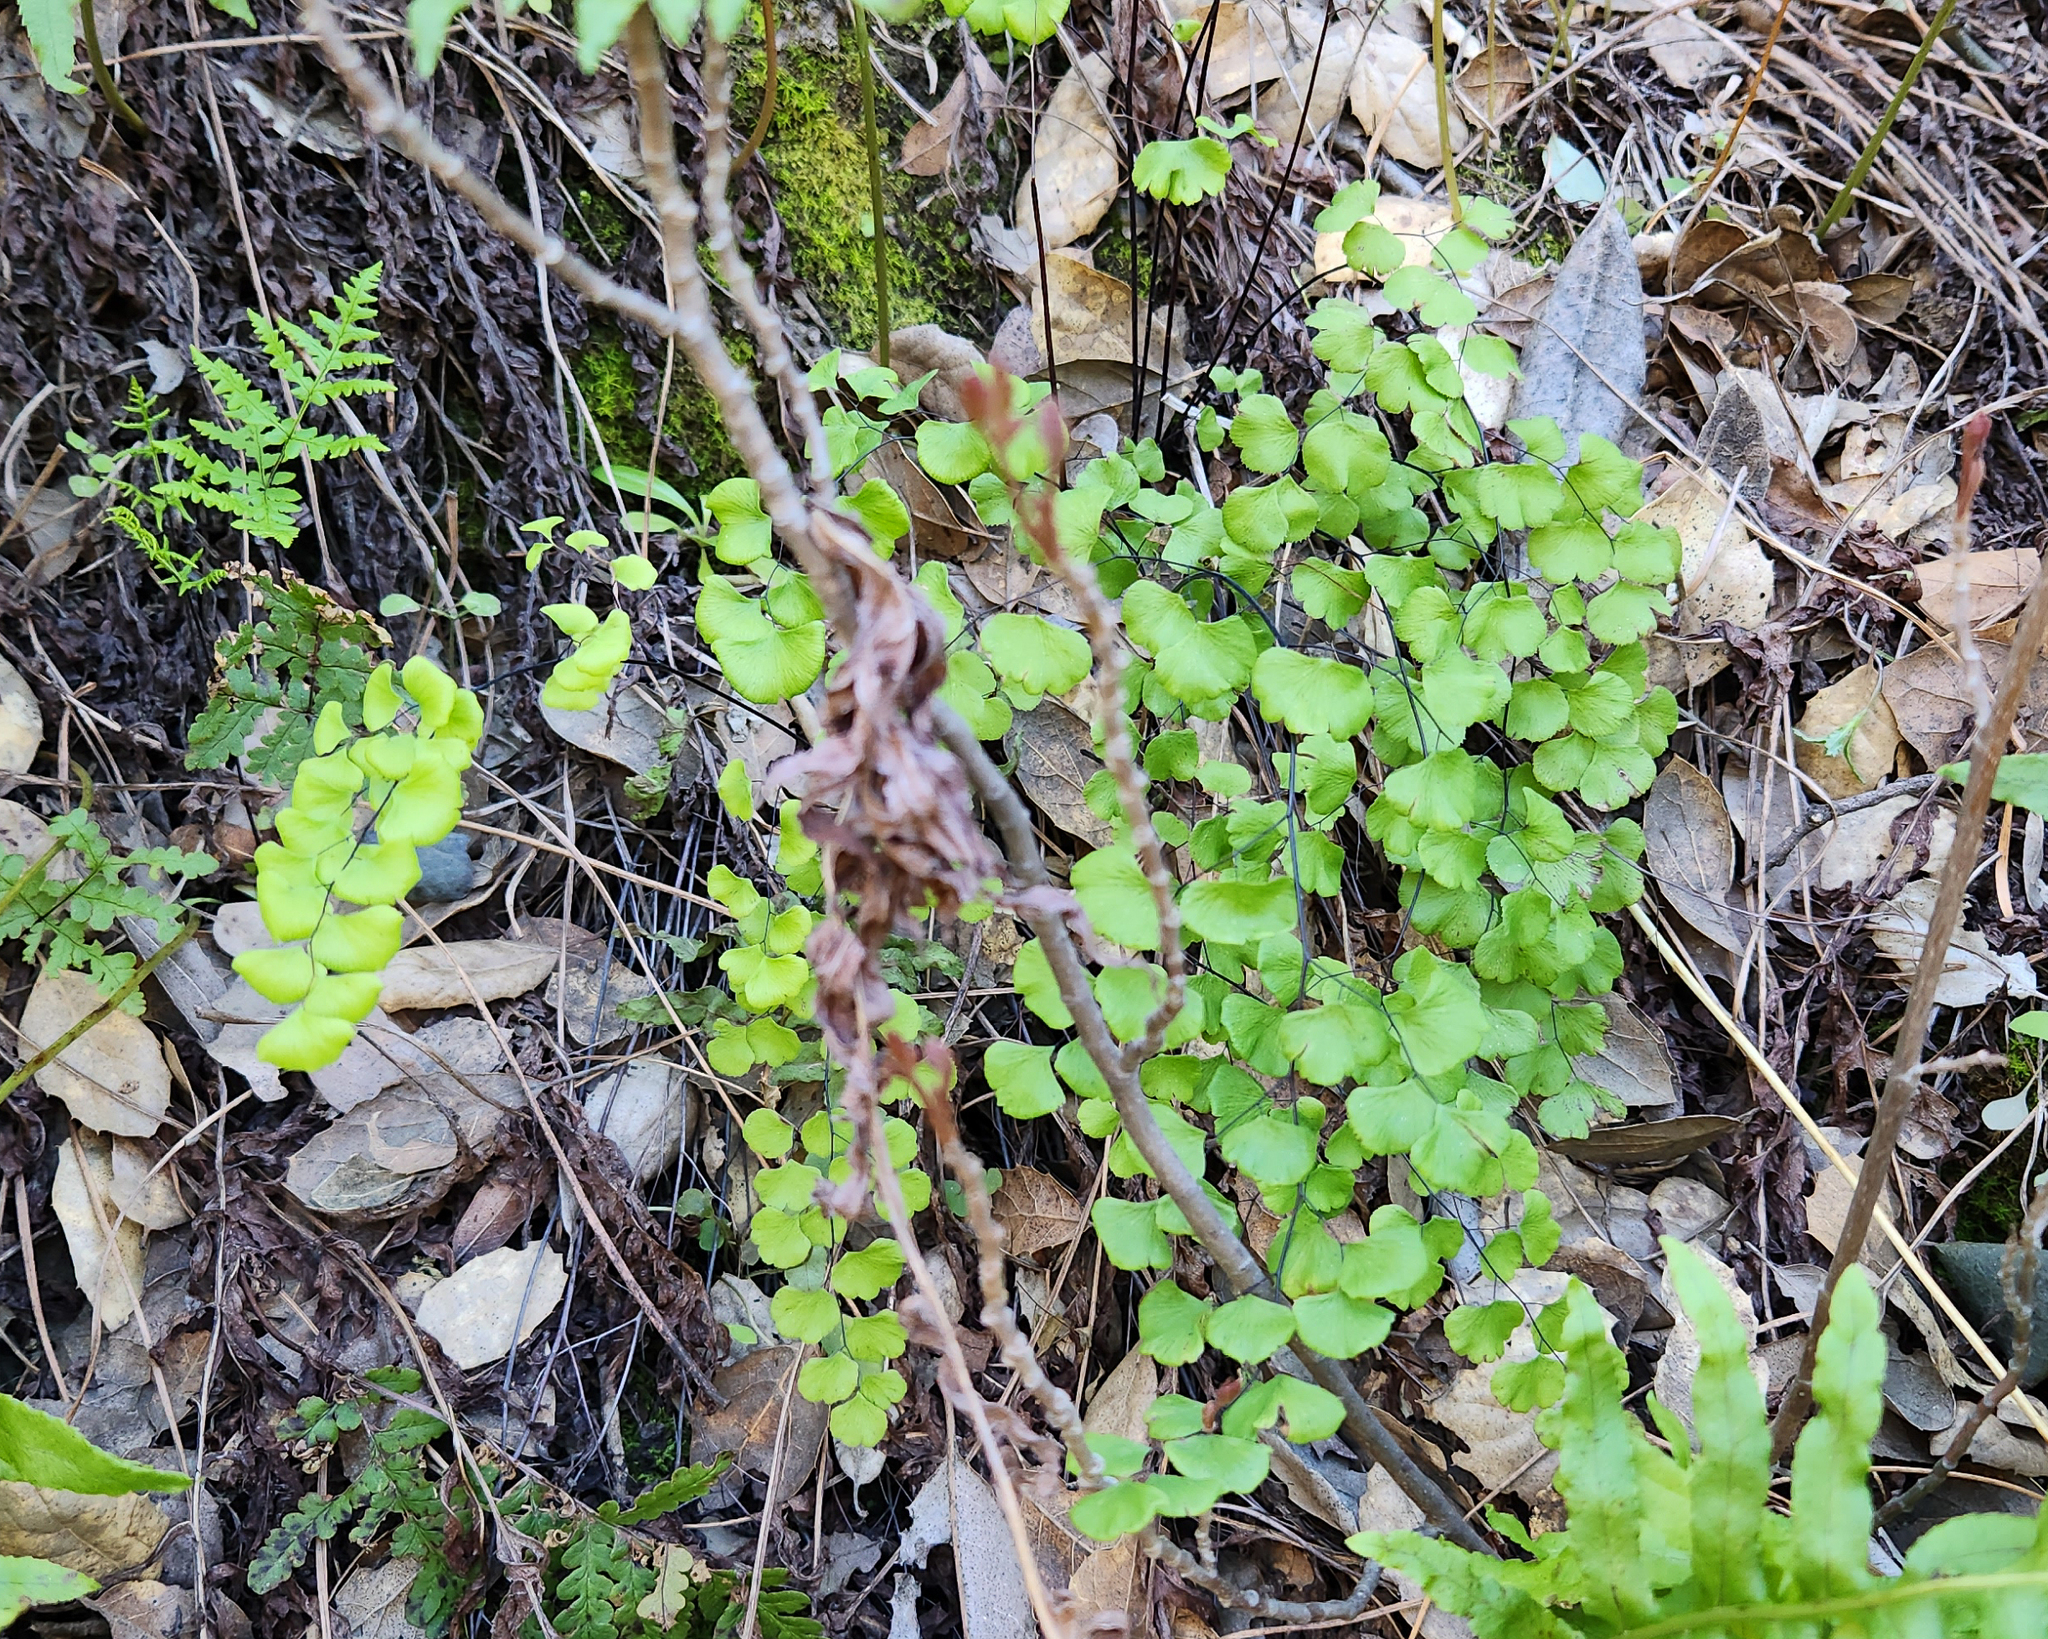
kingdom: Plantae
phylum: Tracheophyta
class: Polypodiopsida
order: Polypodiales
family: Pteridaceae
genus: Adiantum
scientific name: Adiantum jordanii
